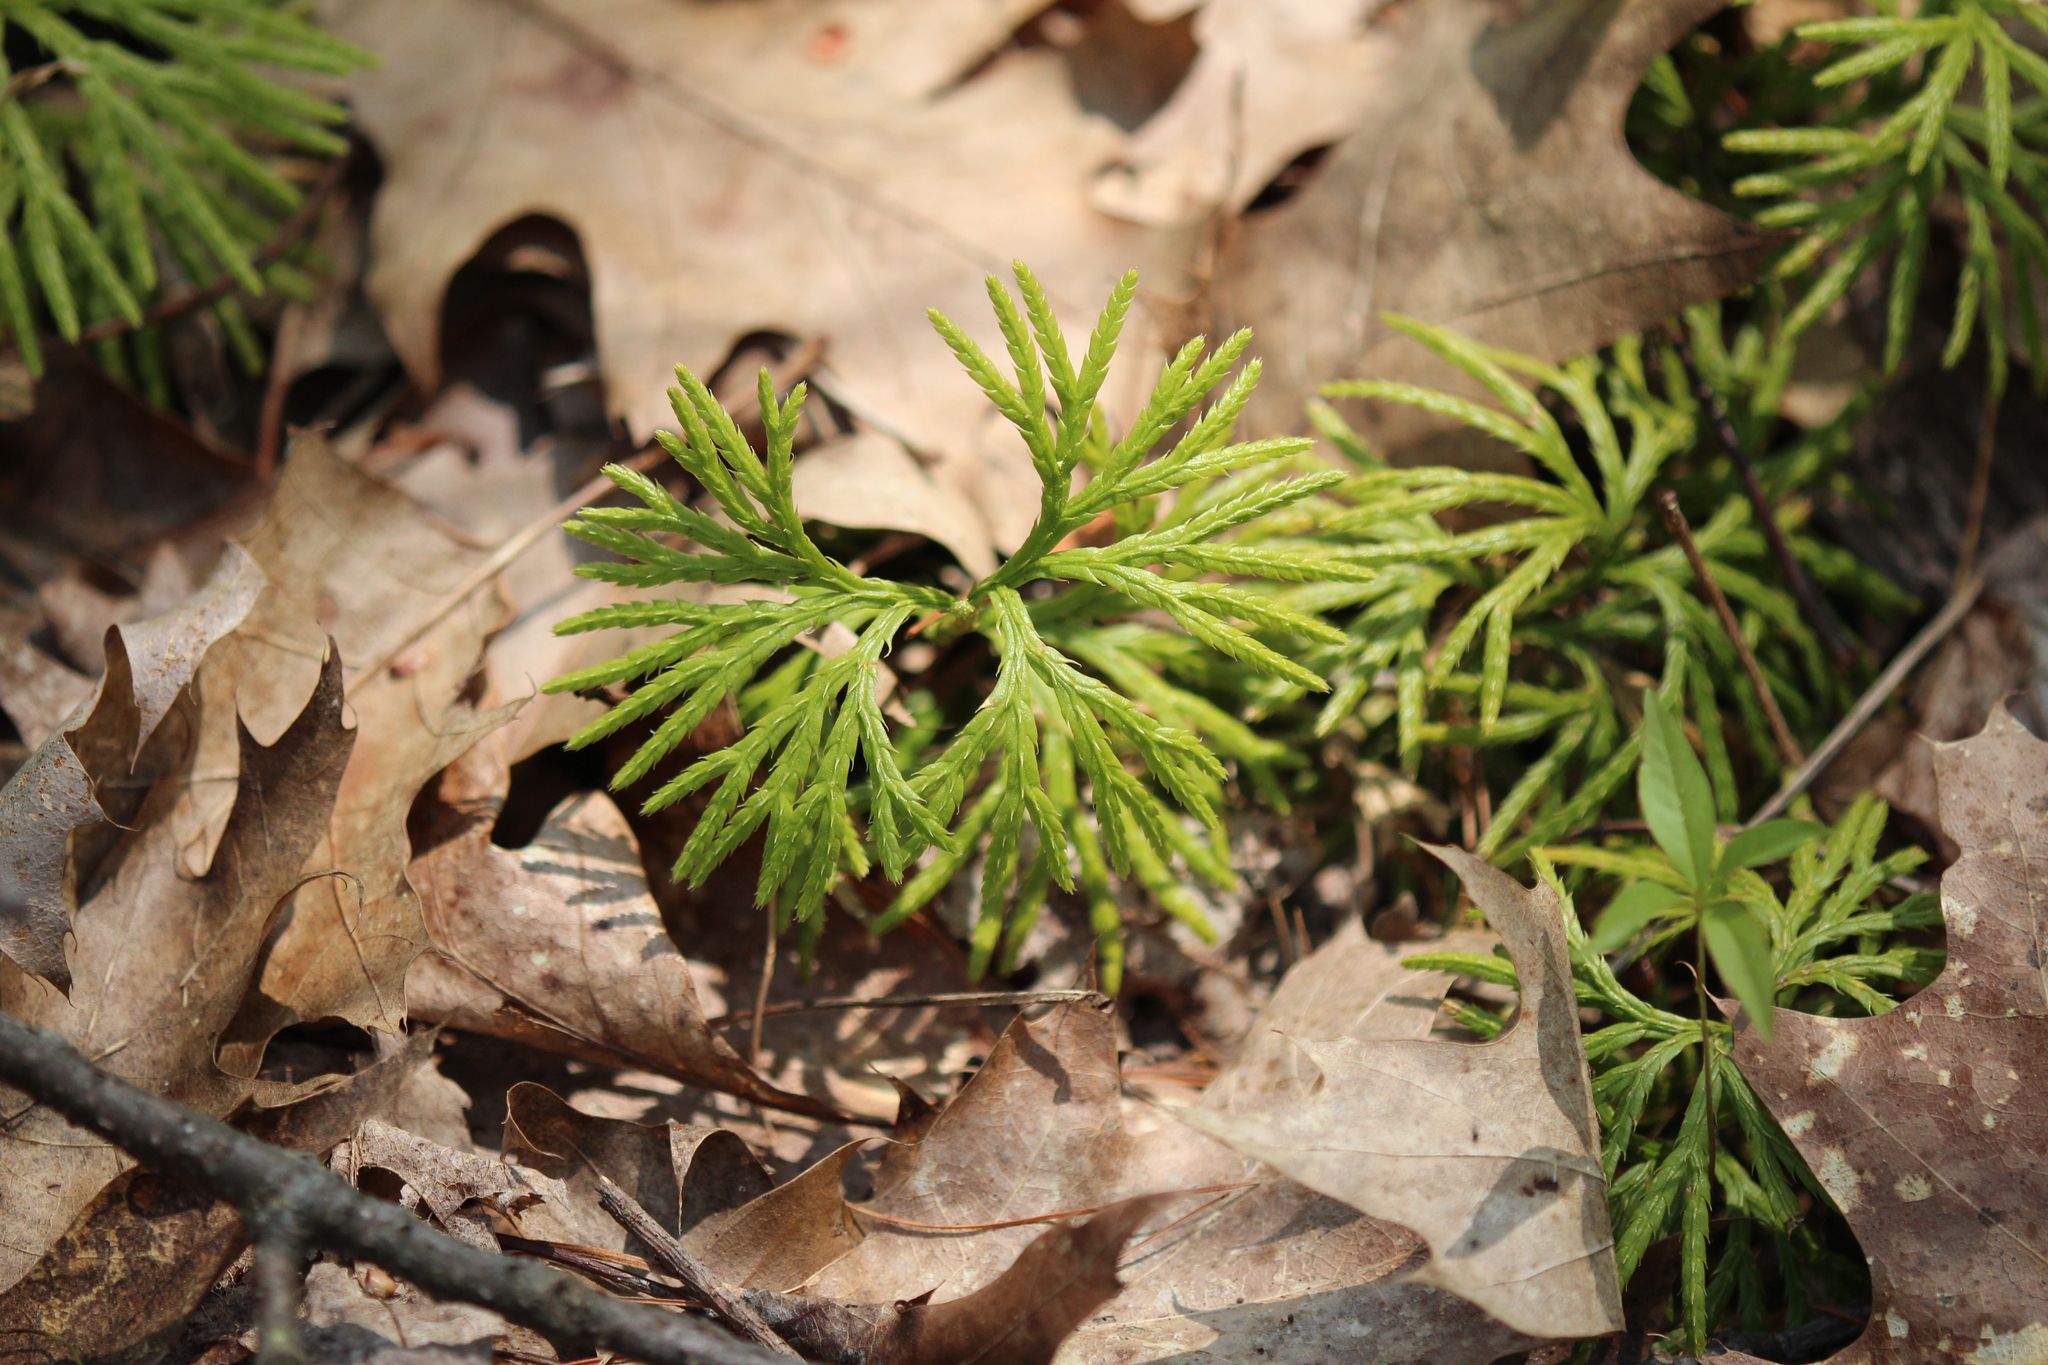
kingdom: Plantae
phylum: Tracheophyta
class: Lycopodiopsida
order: Lycopodiales
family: Lycopodiaceae
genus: Diphasiastrum
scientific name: Diphasiastrum digitatum
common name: Southern running-pine
